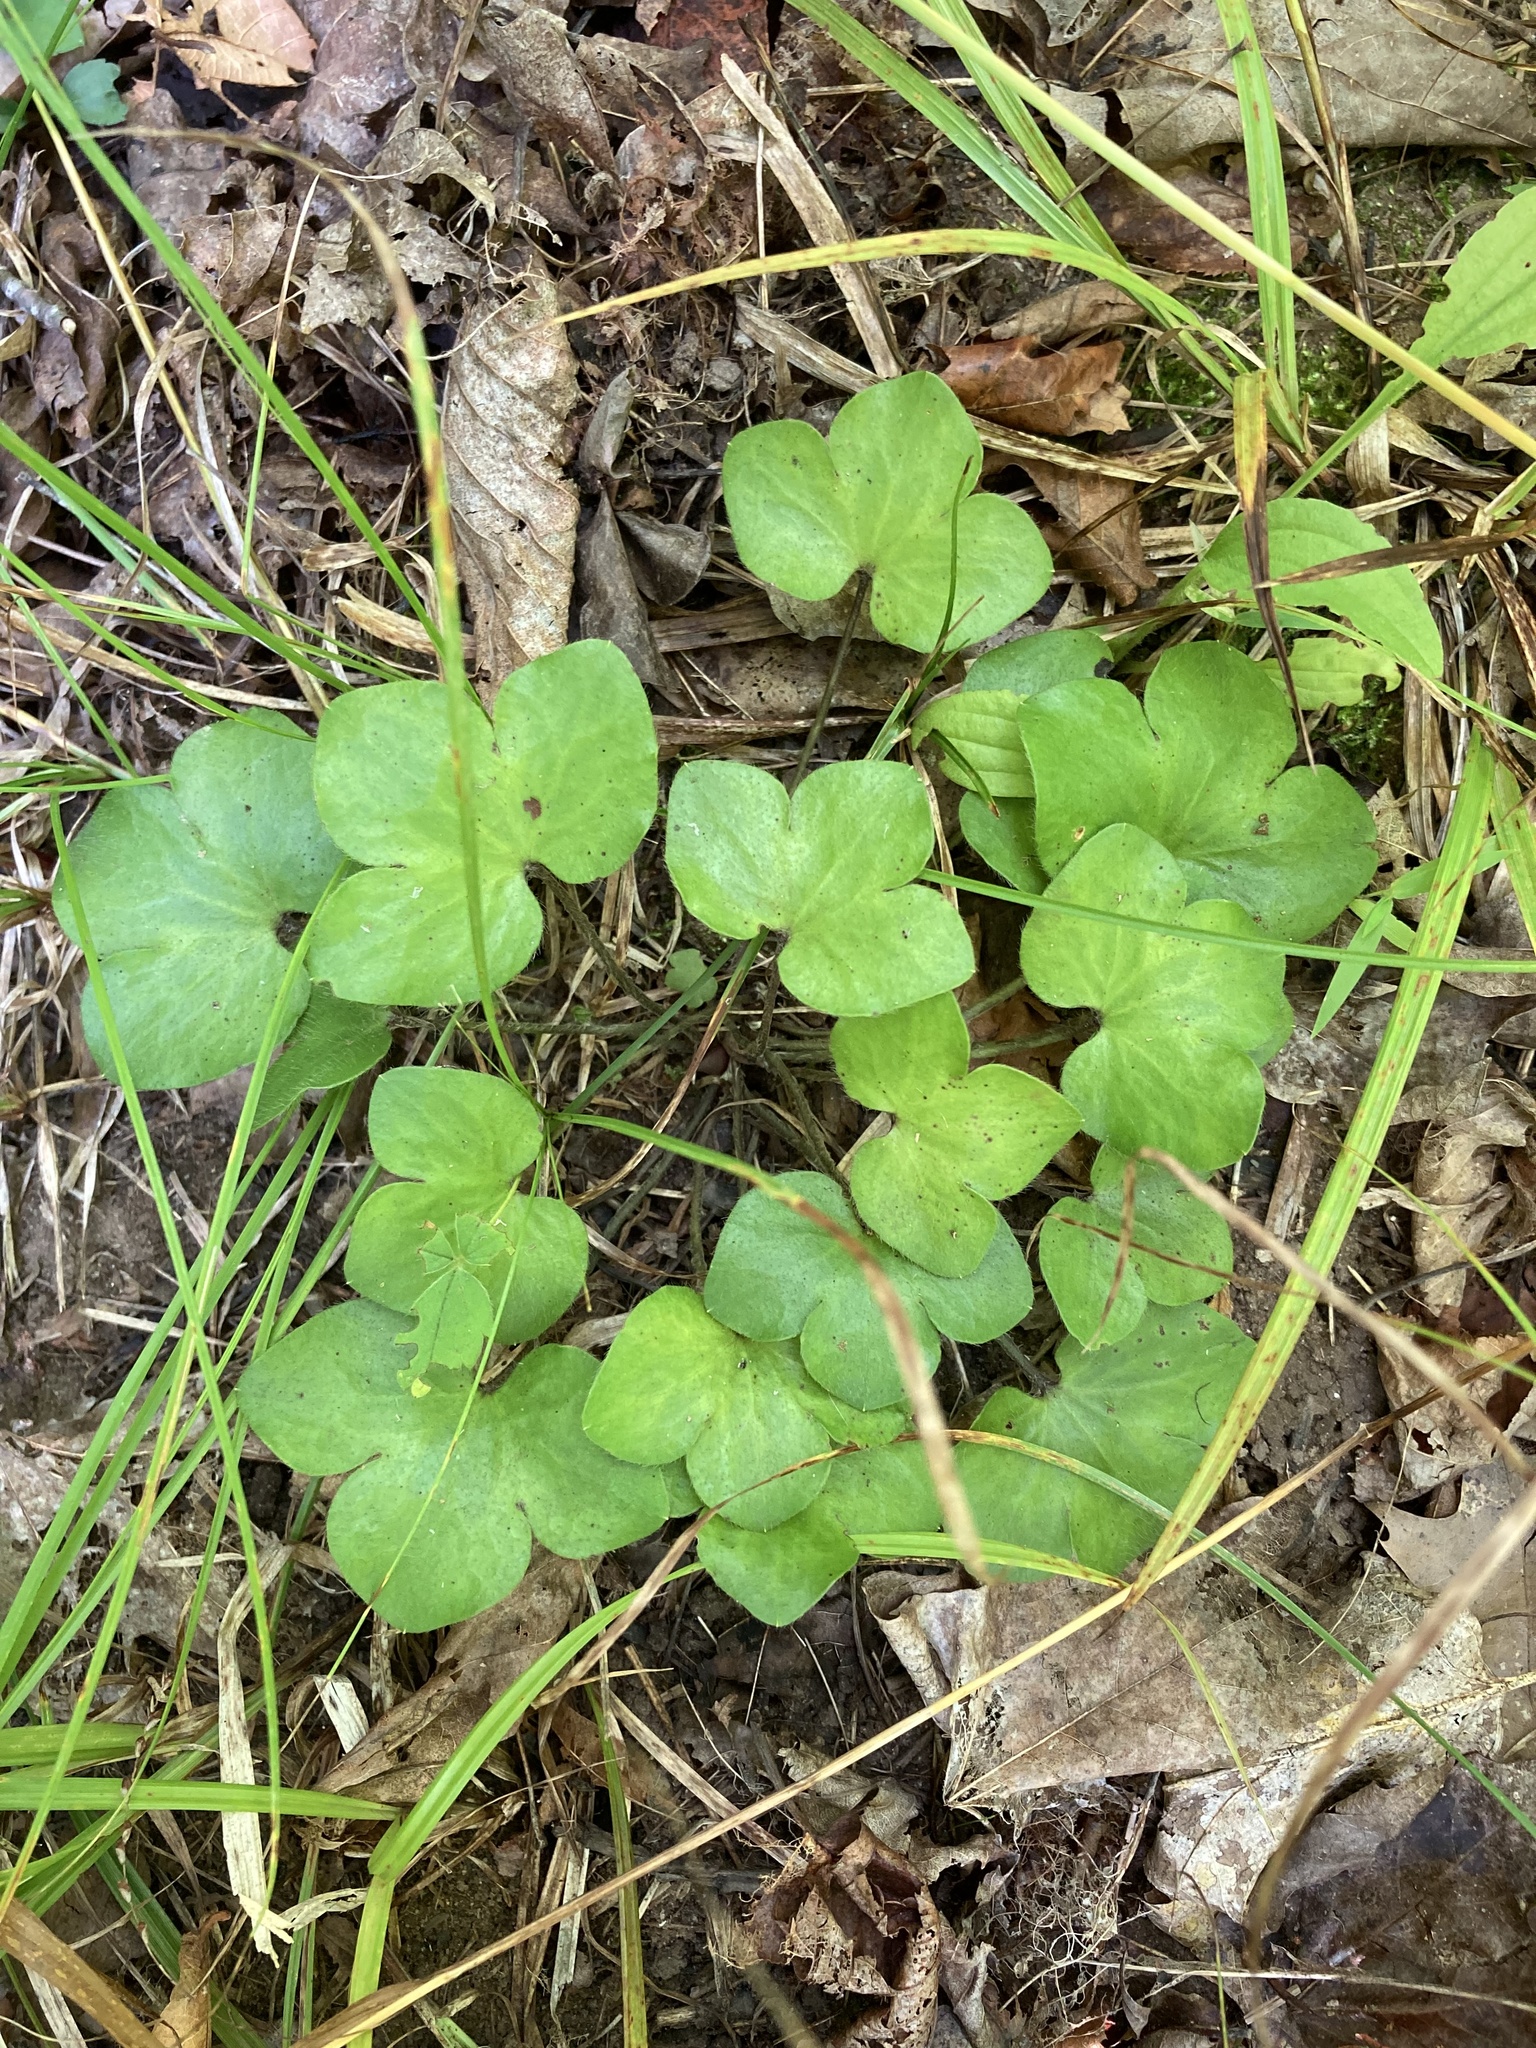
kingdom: Plantae
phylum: Tracheophyta
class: Magnoliopsida
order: Ranunculales
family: Ranunculaceae
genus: Hepatica
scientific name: Hepatica americana
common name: American hepatica
